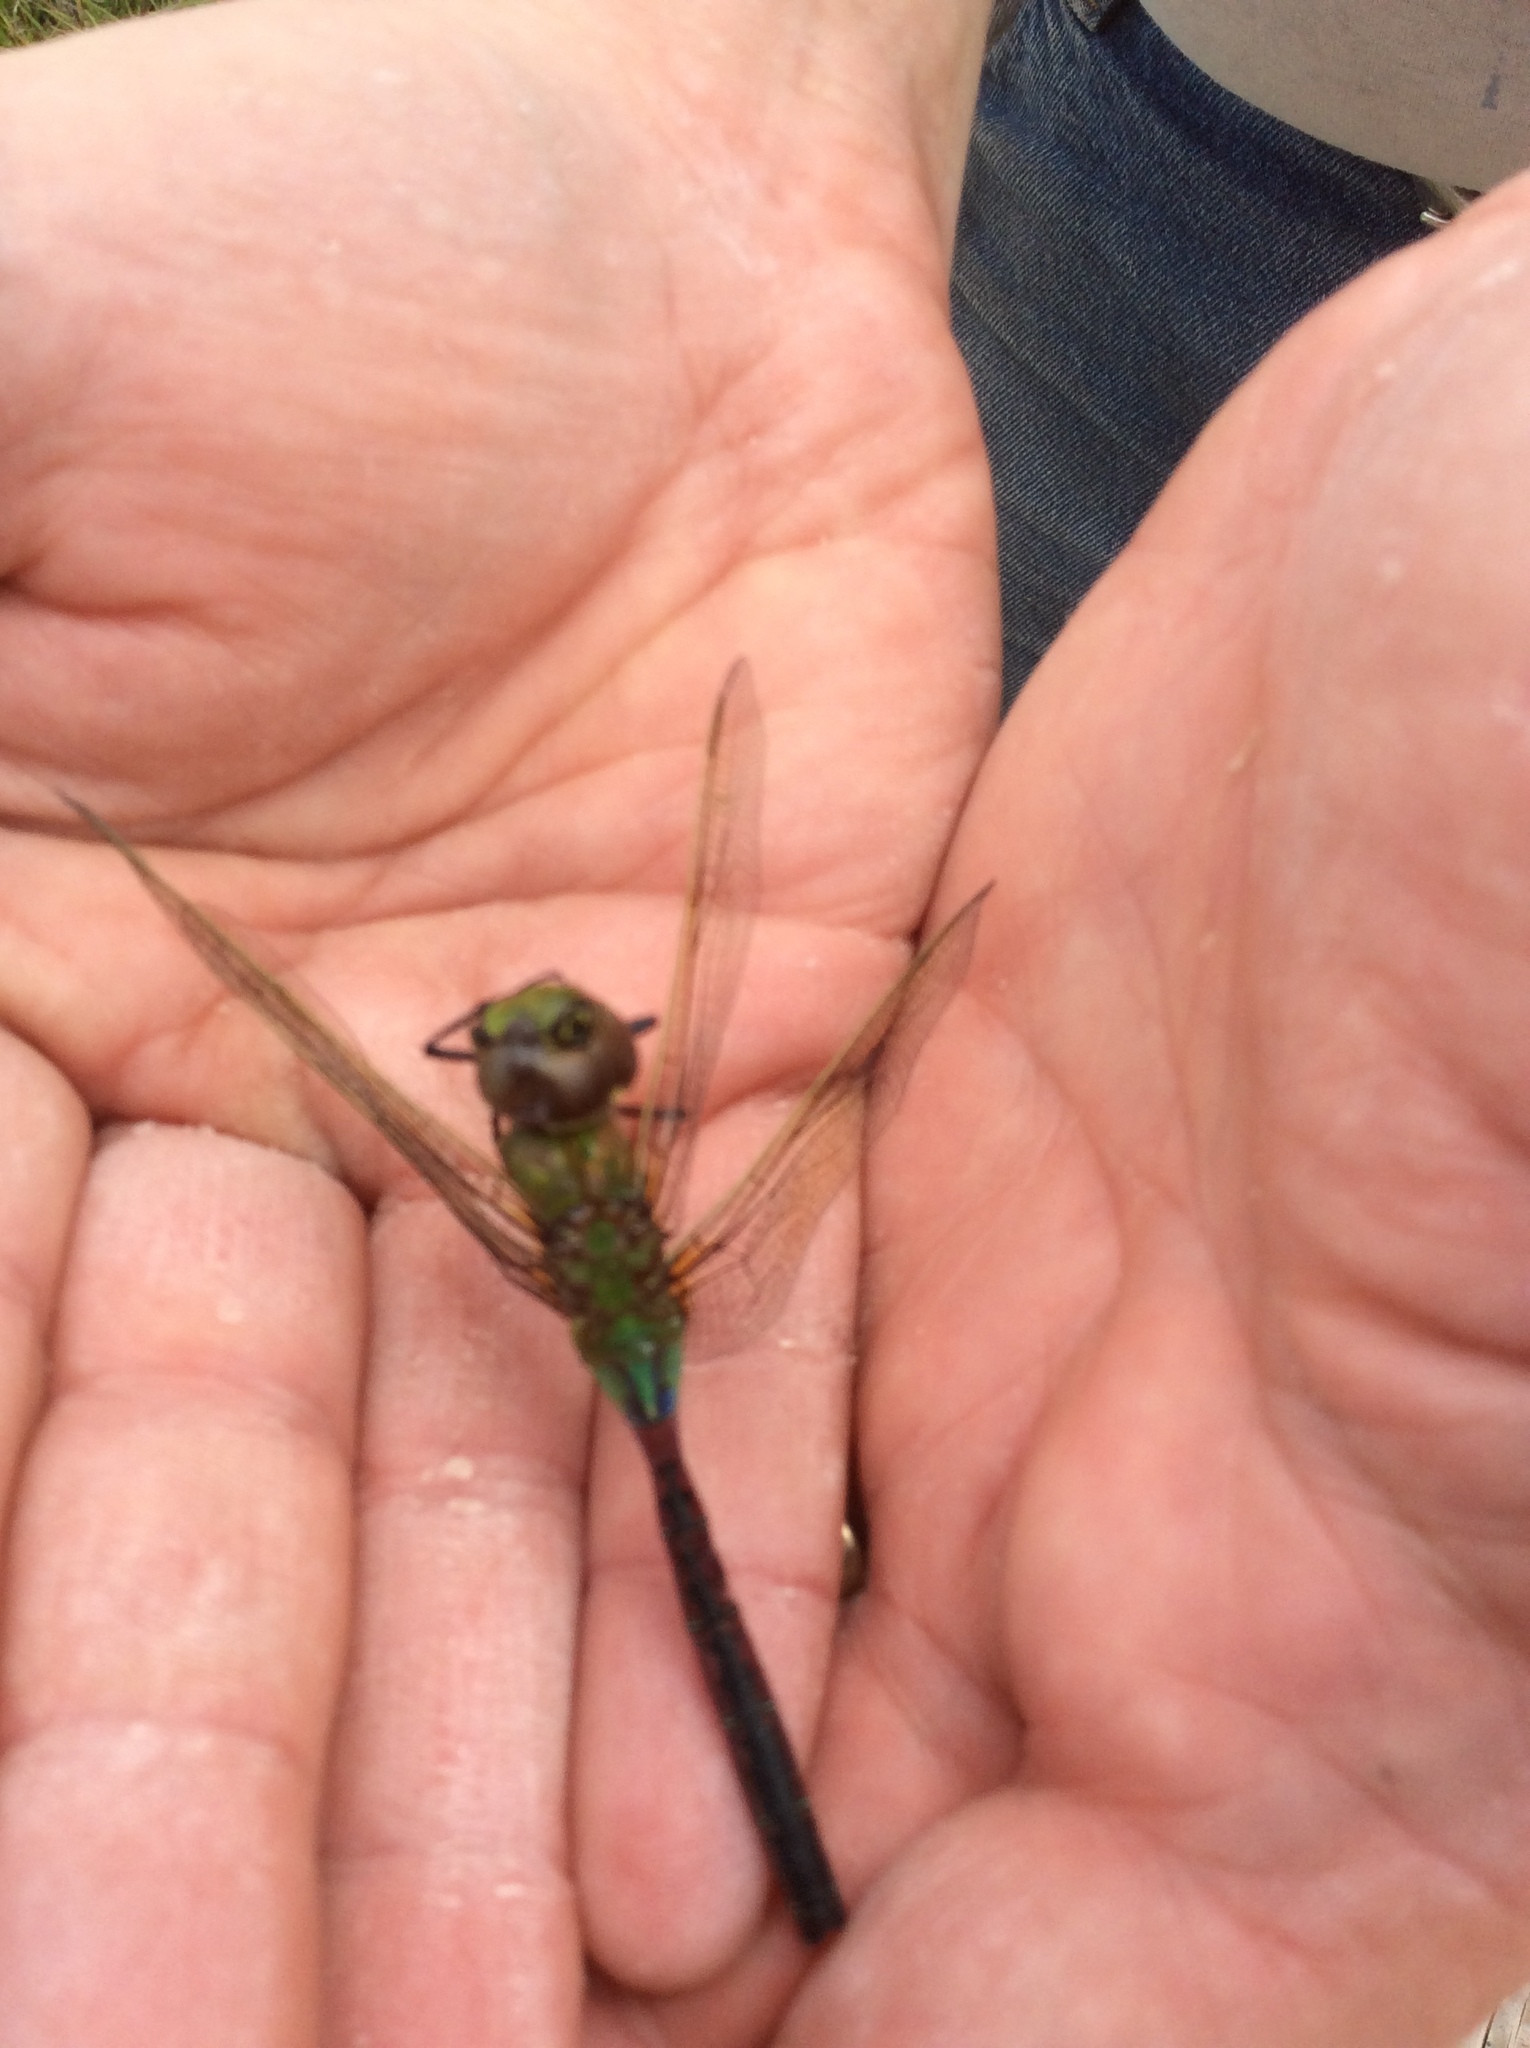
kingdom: Animalia
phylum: Arthropoda
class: Insecta
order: Odonata
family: Aeshnidae
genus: Anax
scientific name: Anax junius
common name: Common green darner
